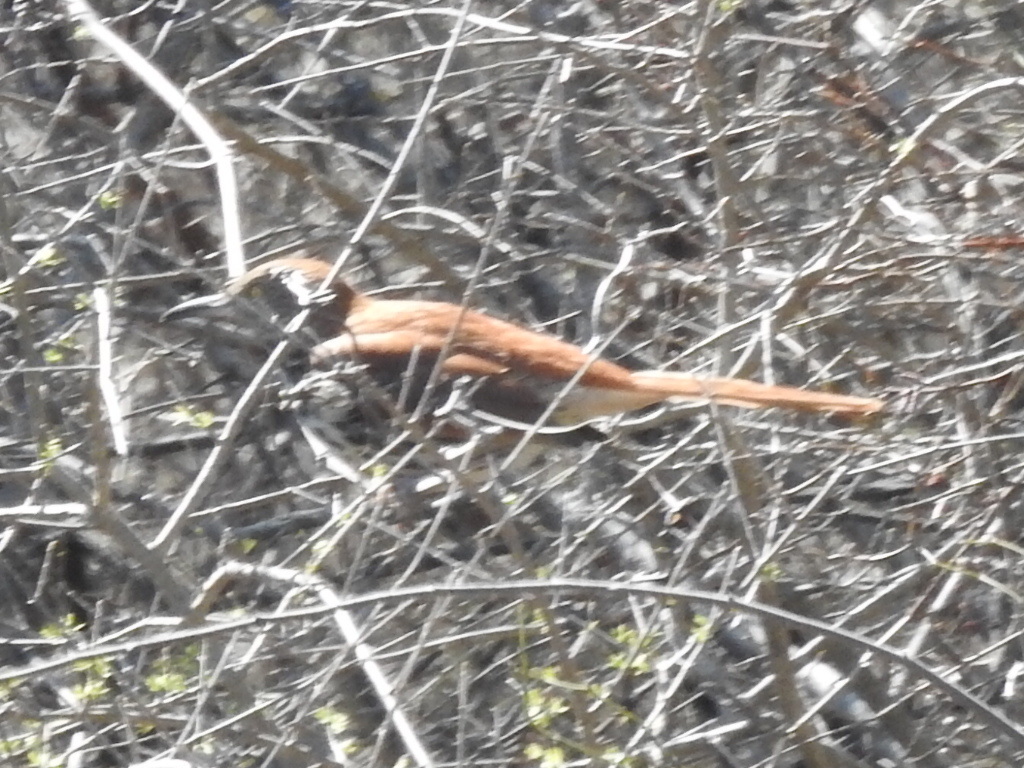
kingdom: Animalia
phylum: Chordata
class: Aves
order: Passeriformes
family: Mimidae
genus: Toxostoma
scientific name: Toxostoma rufum
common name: Brown thrasher
